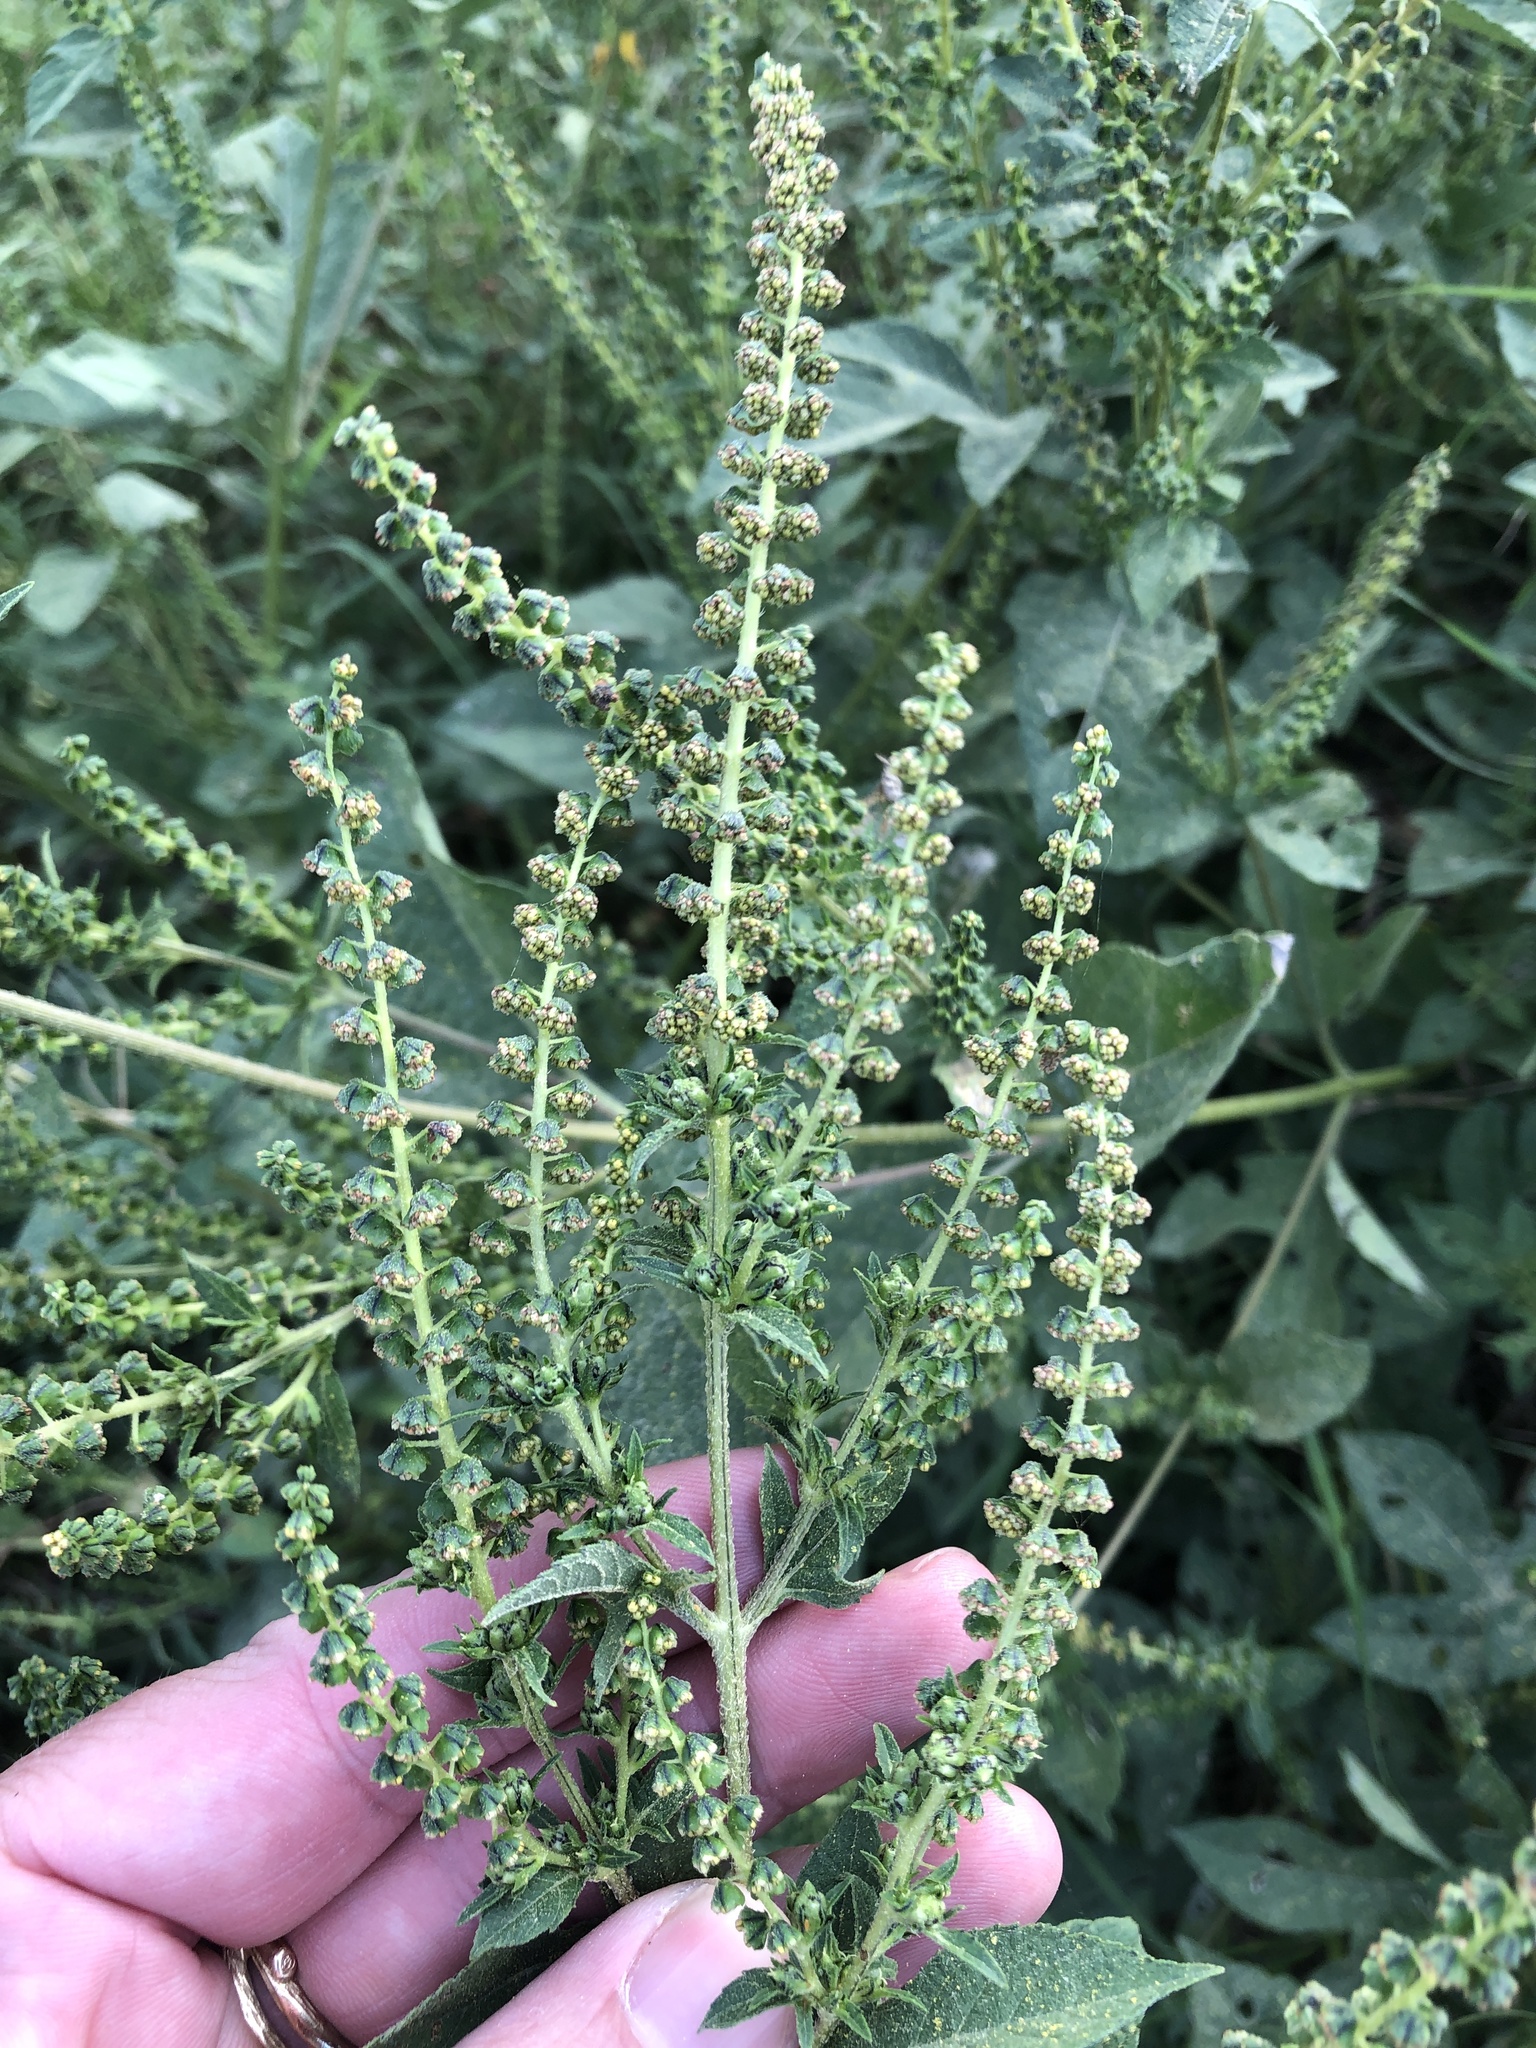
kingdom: Plantae
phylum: Tracheophyta
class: Magnoliopsida
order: Asterales
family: Asteraceae
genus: Ambrosia
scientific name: Ambrosia trifida
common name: Giant ragweed
